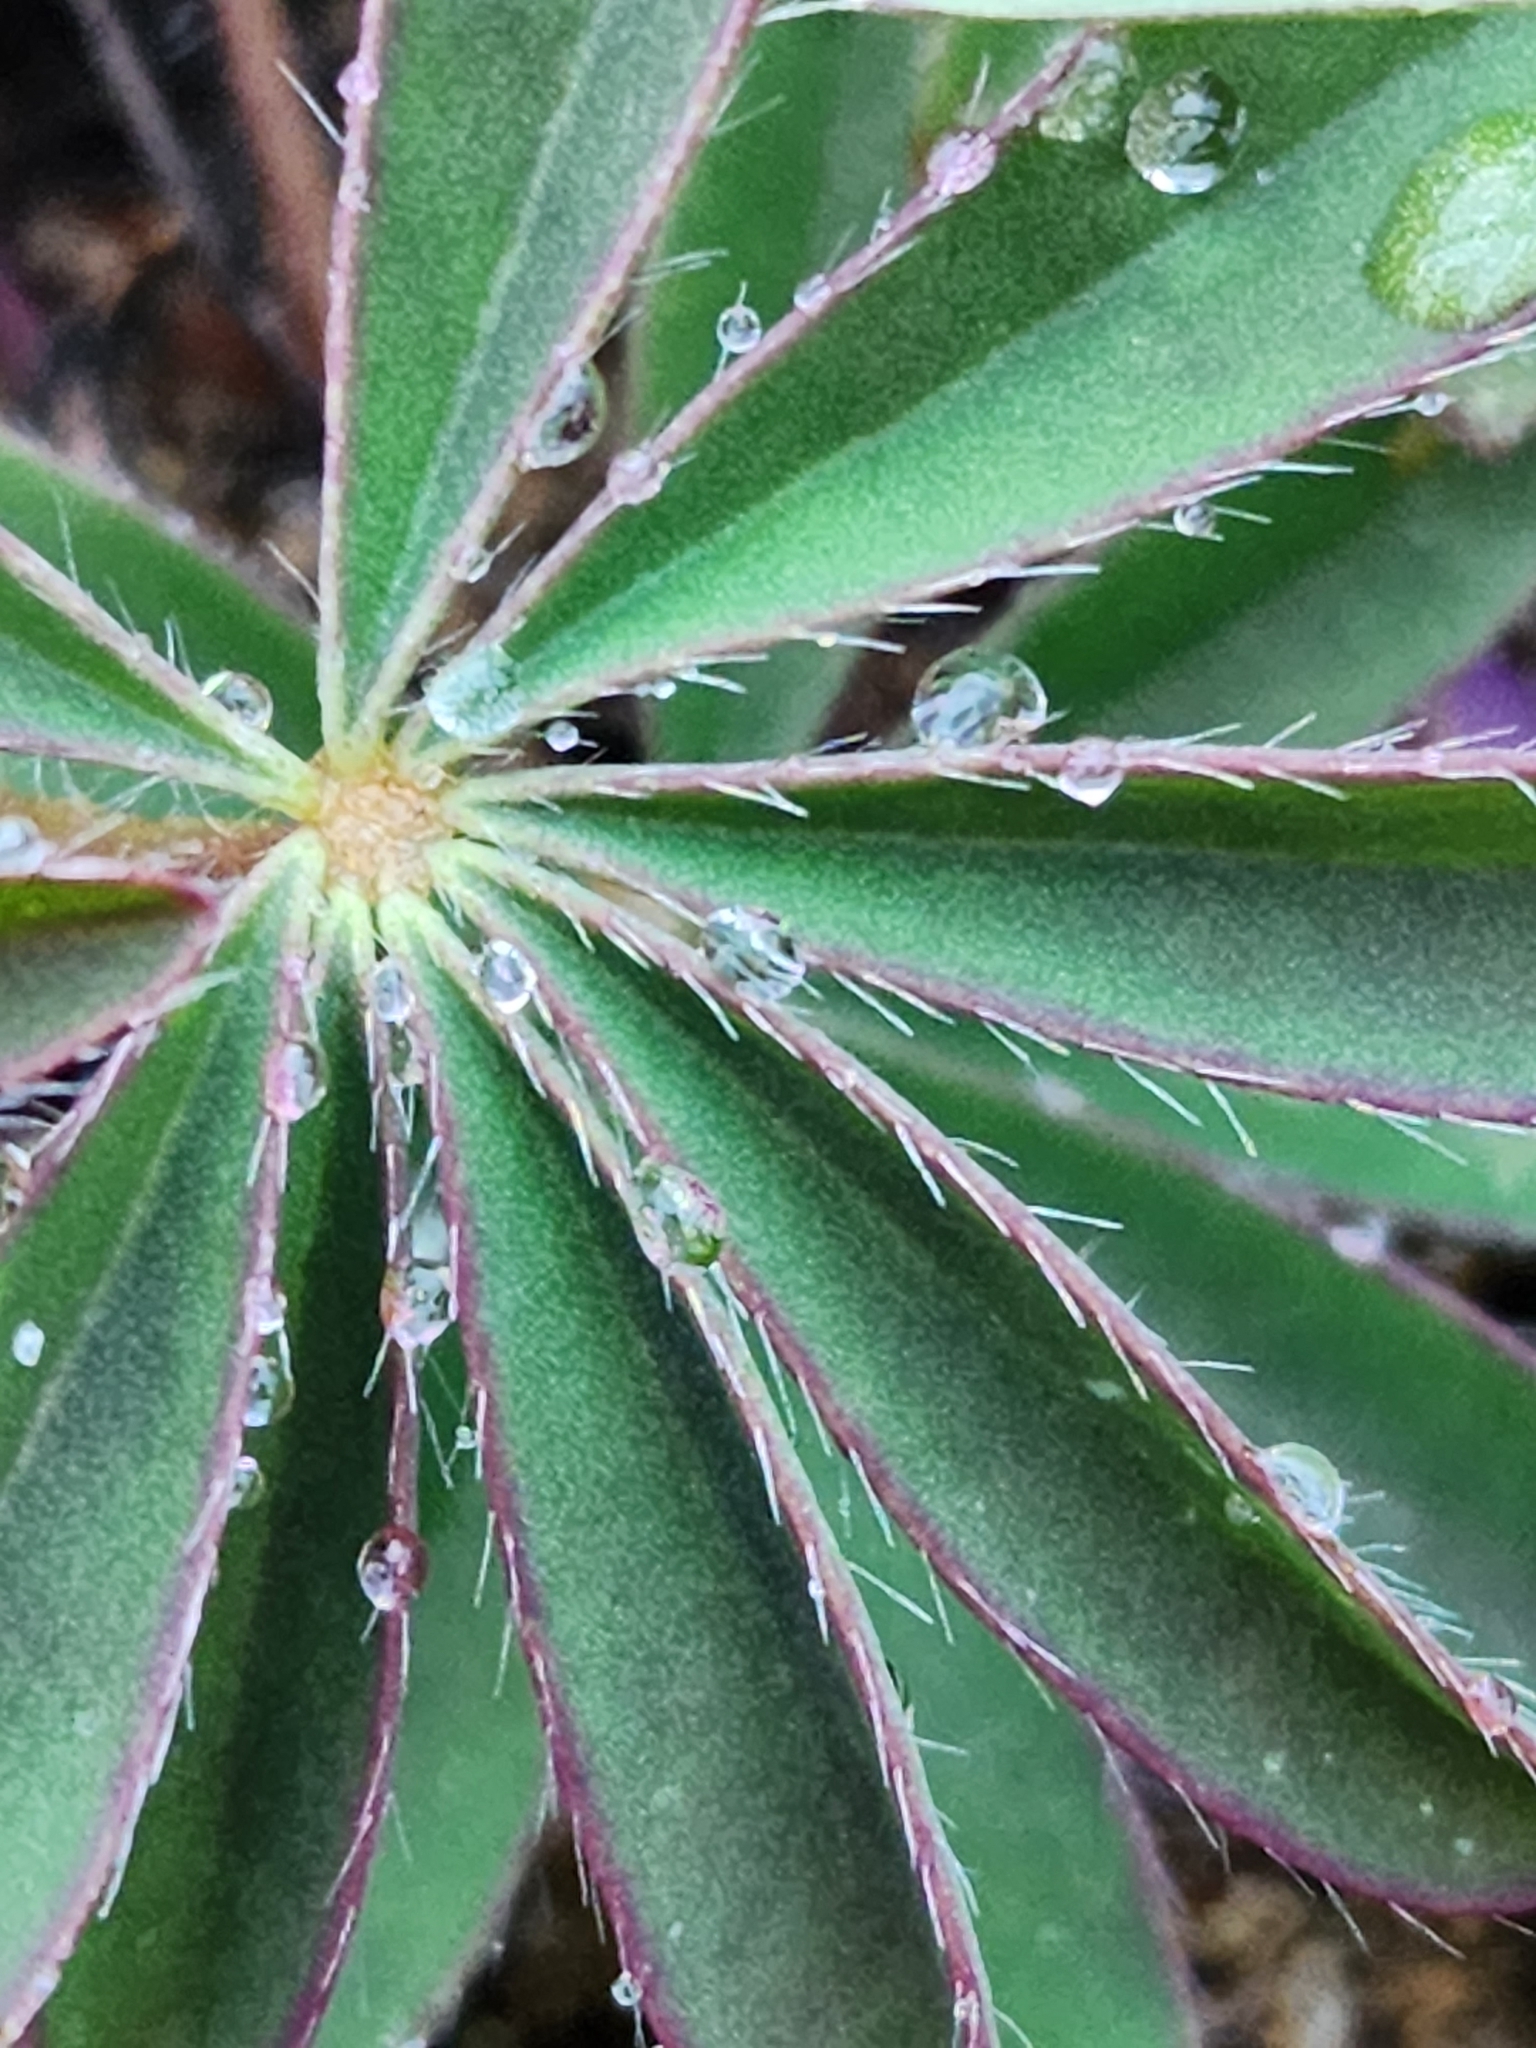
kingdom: Plantae
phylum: Tracheophyta
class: Magnoliopsida
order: Fabales
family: Fabaceae
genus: Lupinus
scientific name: Lupinus perennis
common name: Sundial lupine
